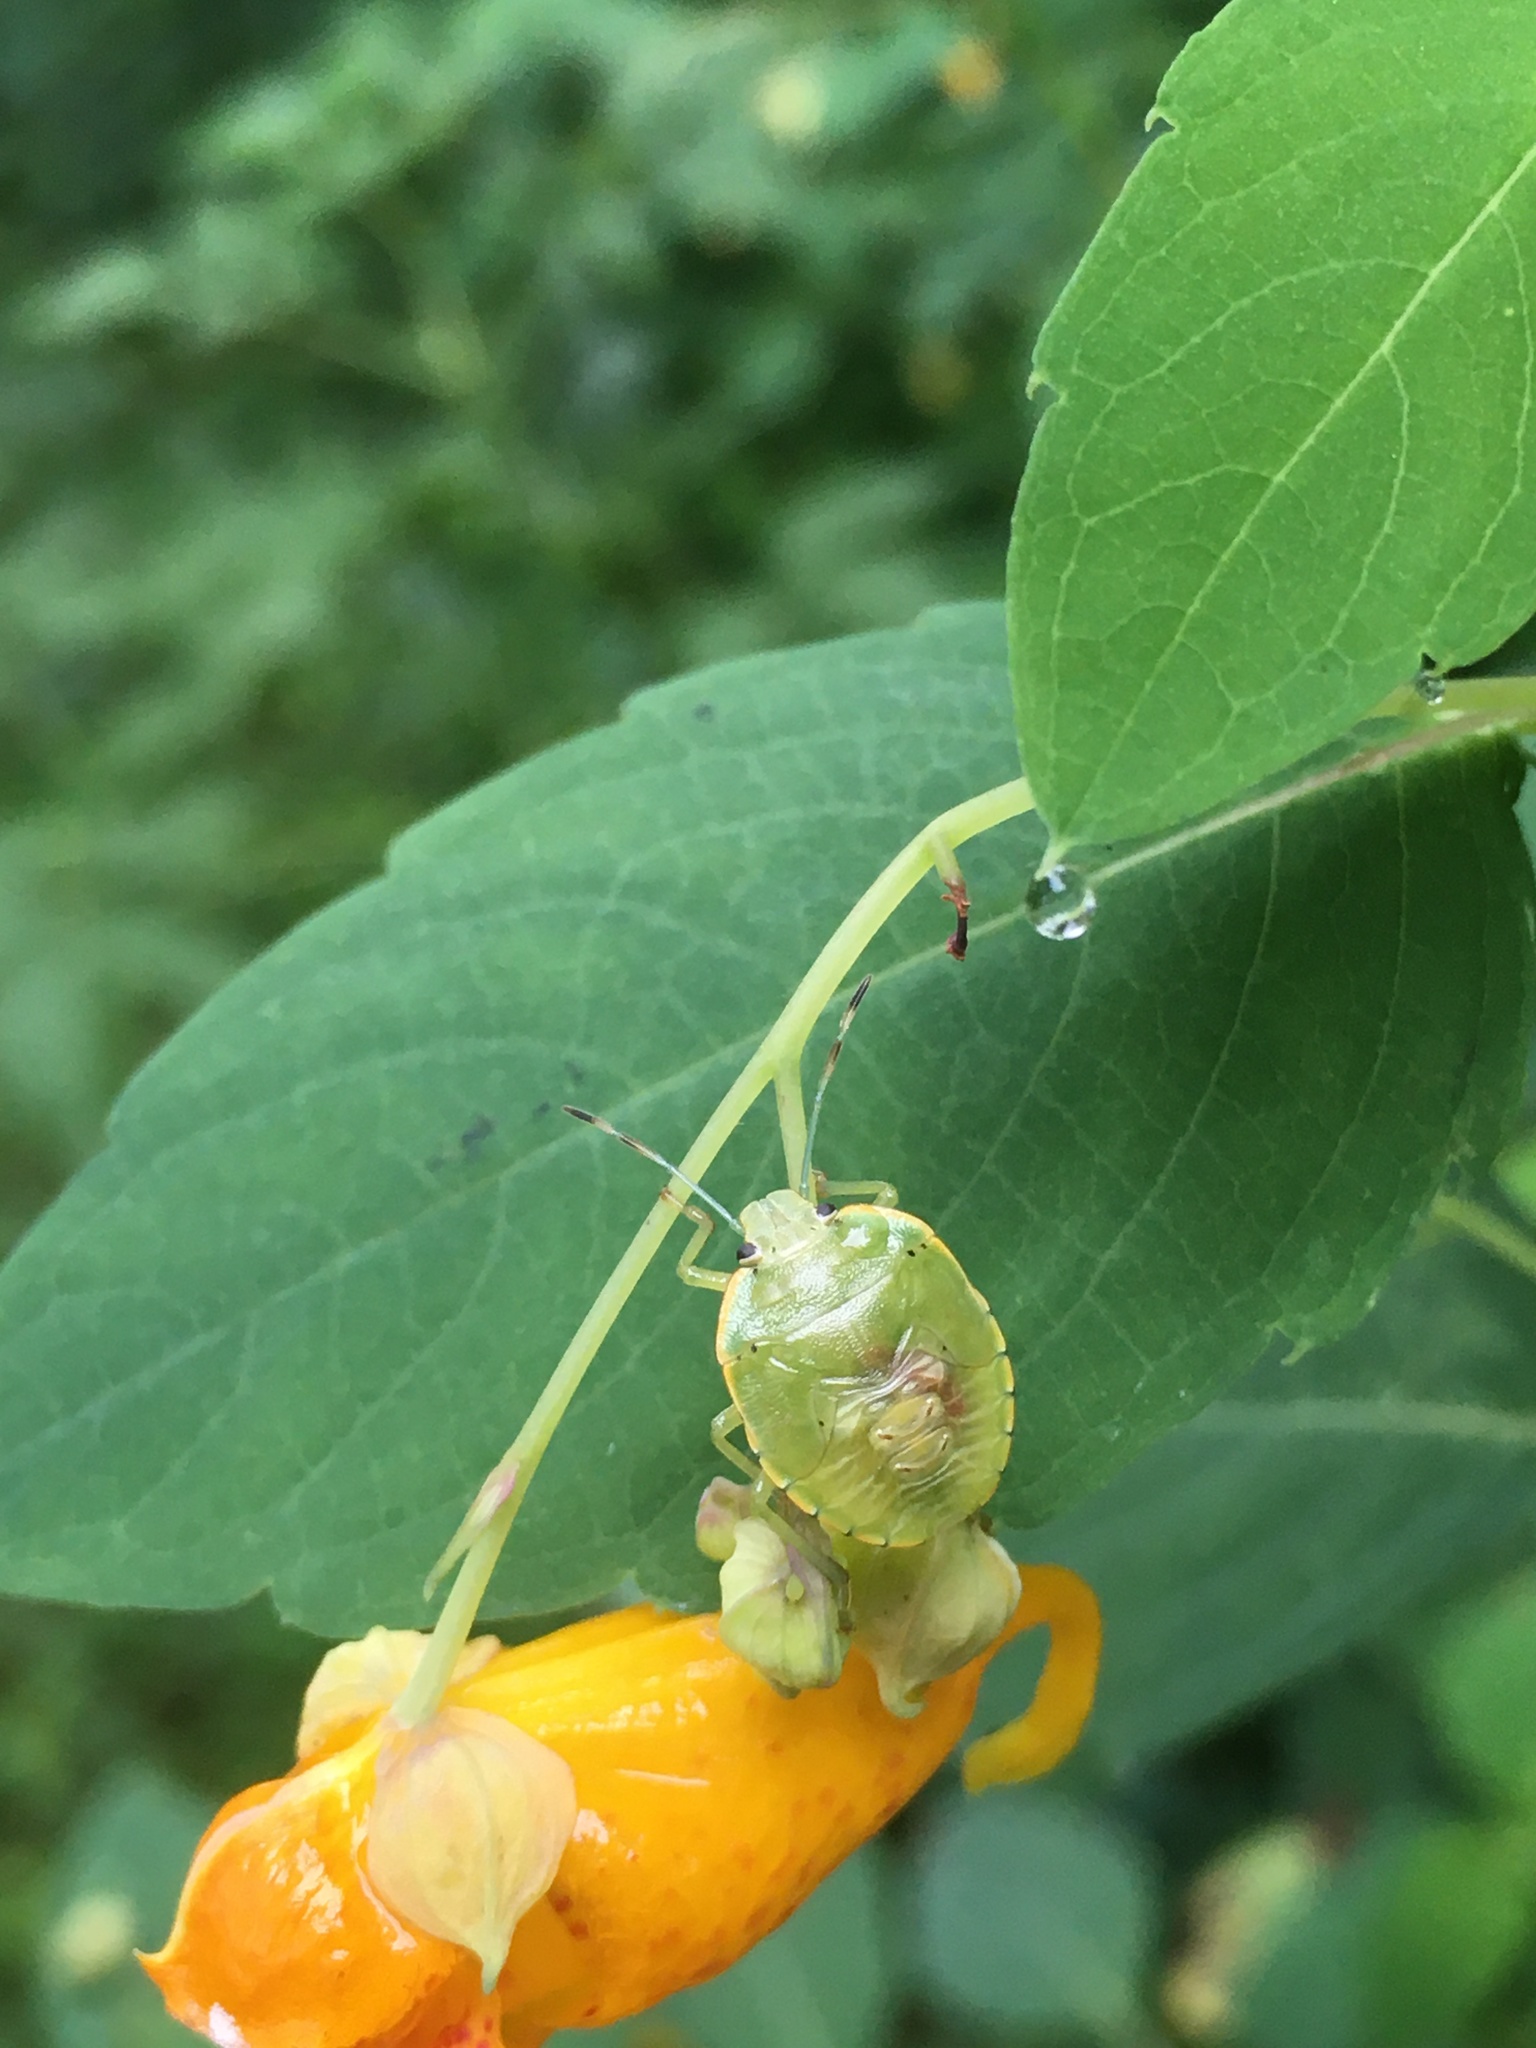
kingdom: Animalia
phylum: Arthropoda
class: Insecta
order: Hemiptera
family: Pentatomidae
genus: Chinavia
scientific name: Chinavia hilaris
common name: Green stink bug
